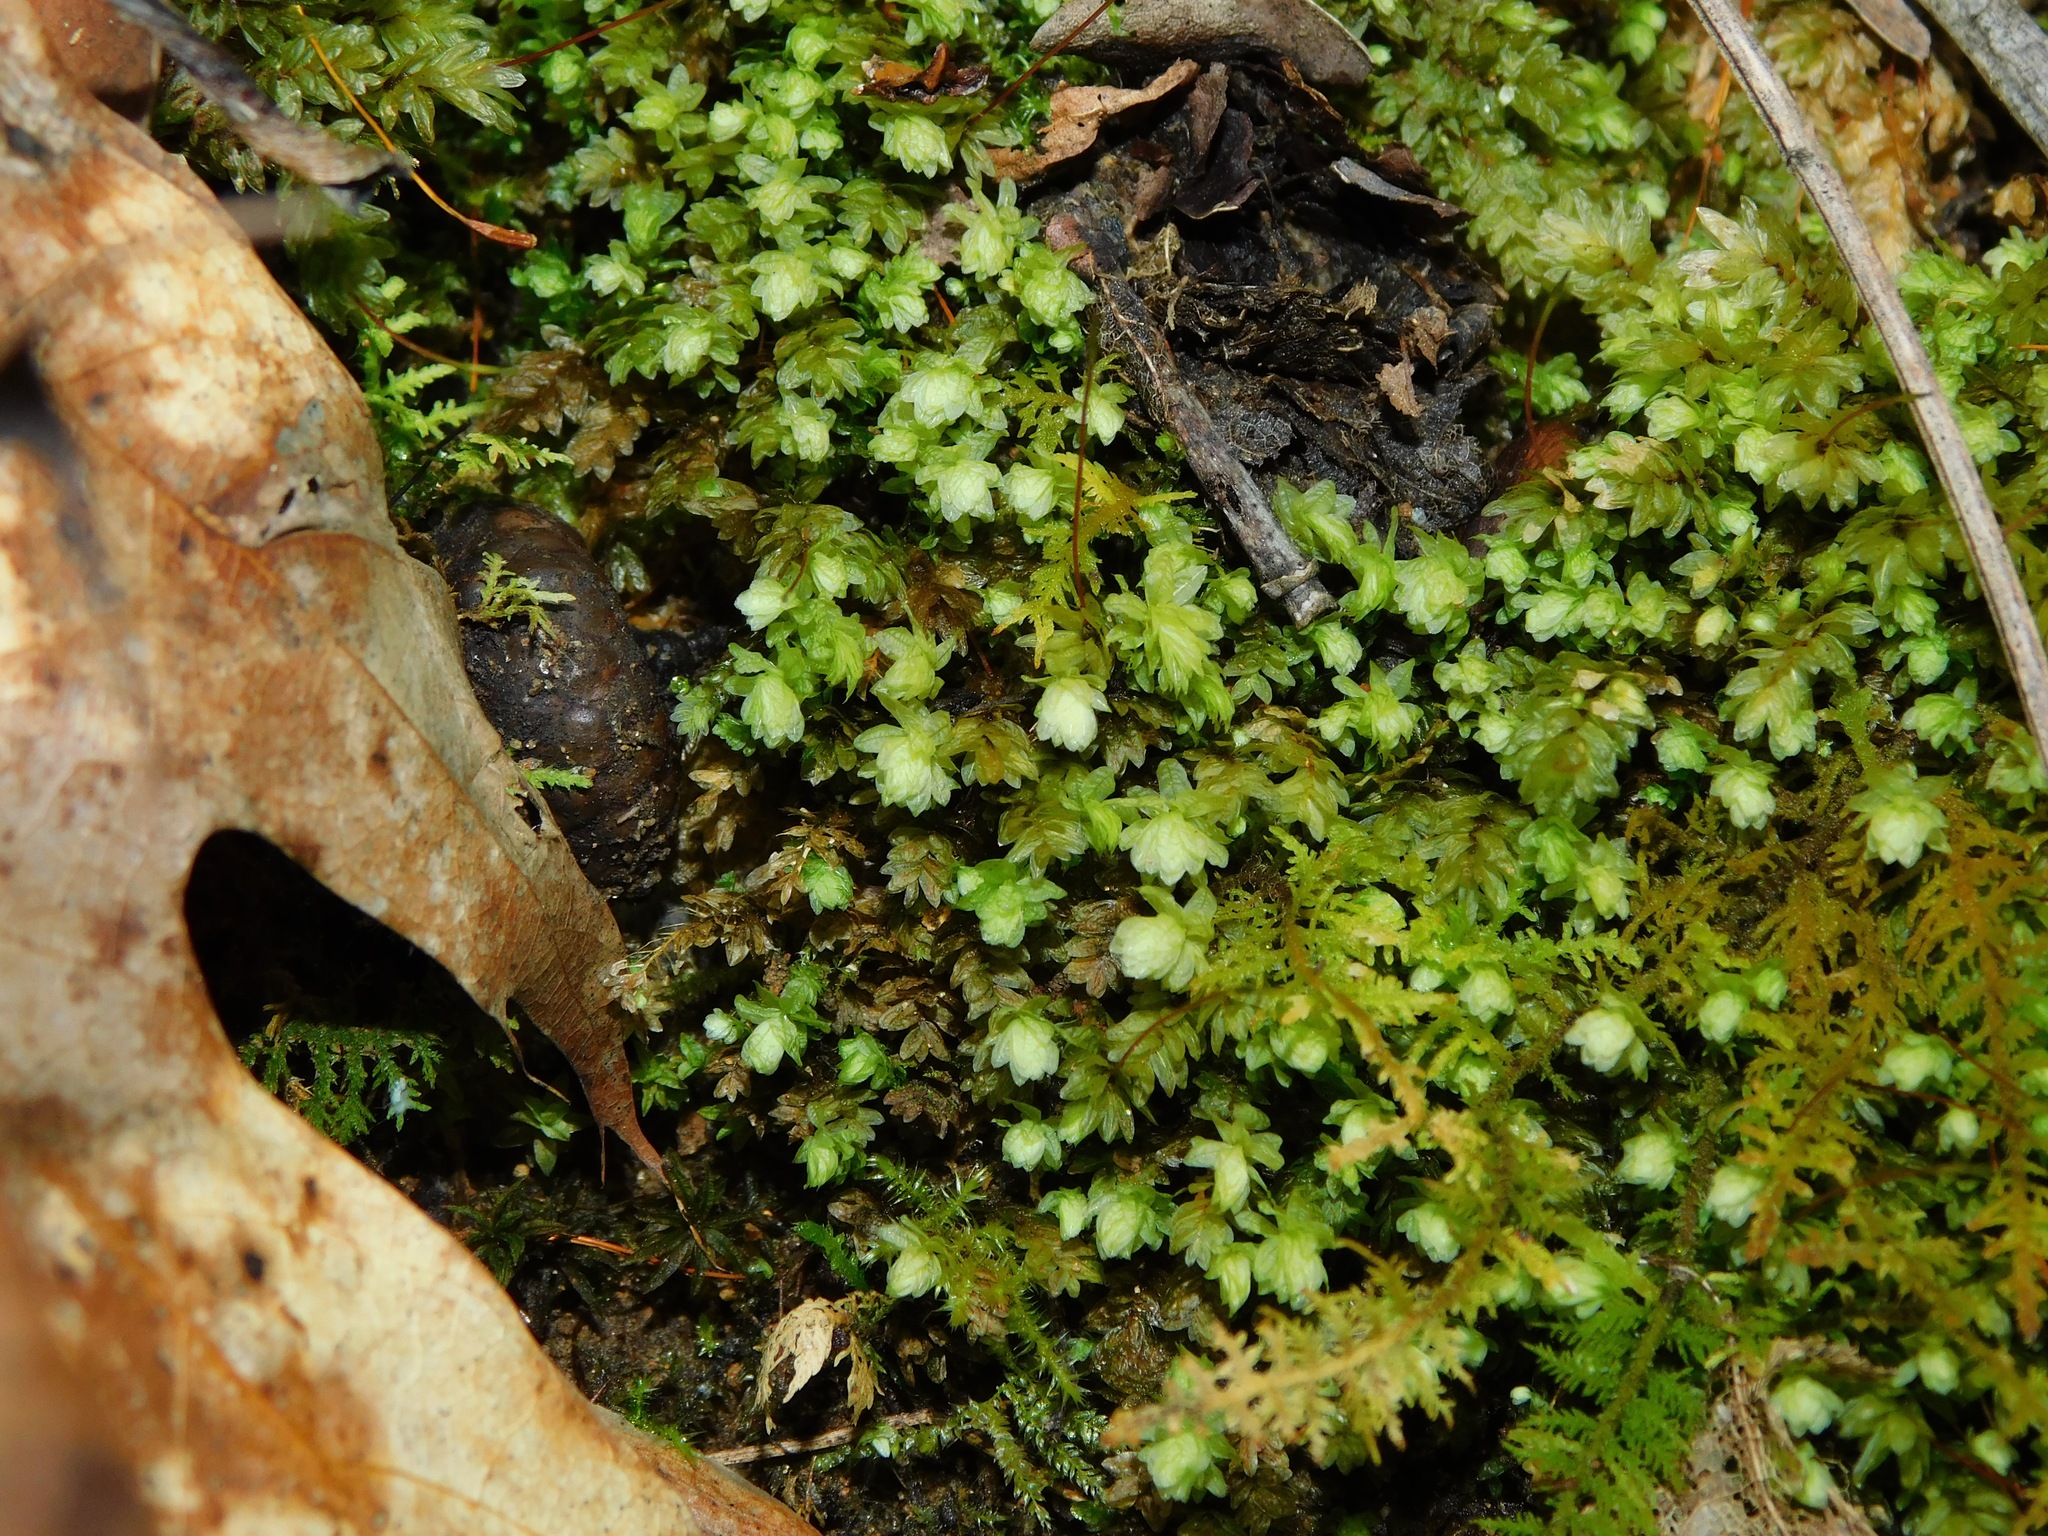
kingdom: Plantae
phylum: Bryophyta
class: Bryopsida
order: Aulacomniales
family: Aulacomniaceae
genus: Aulacomnium
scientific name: Aulacomnium heterostichum
